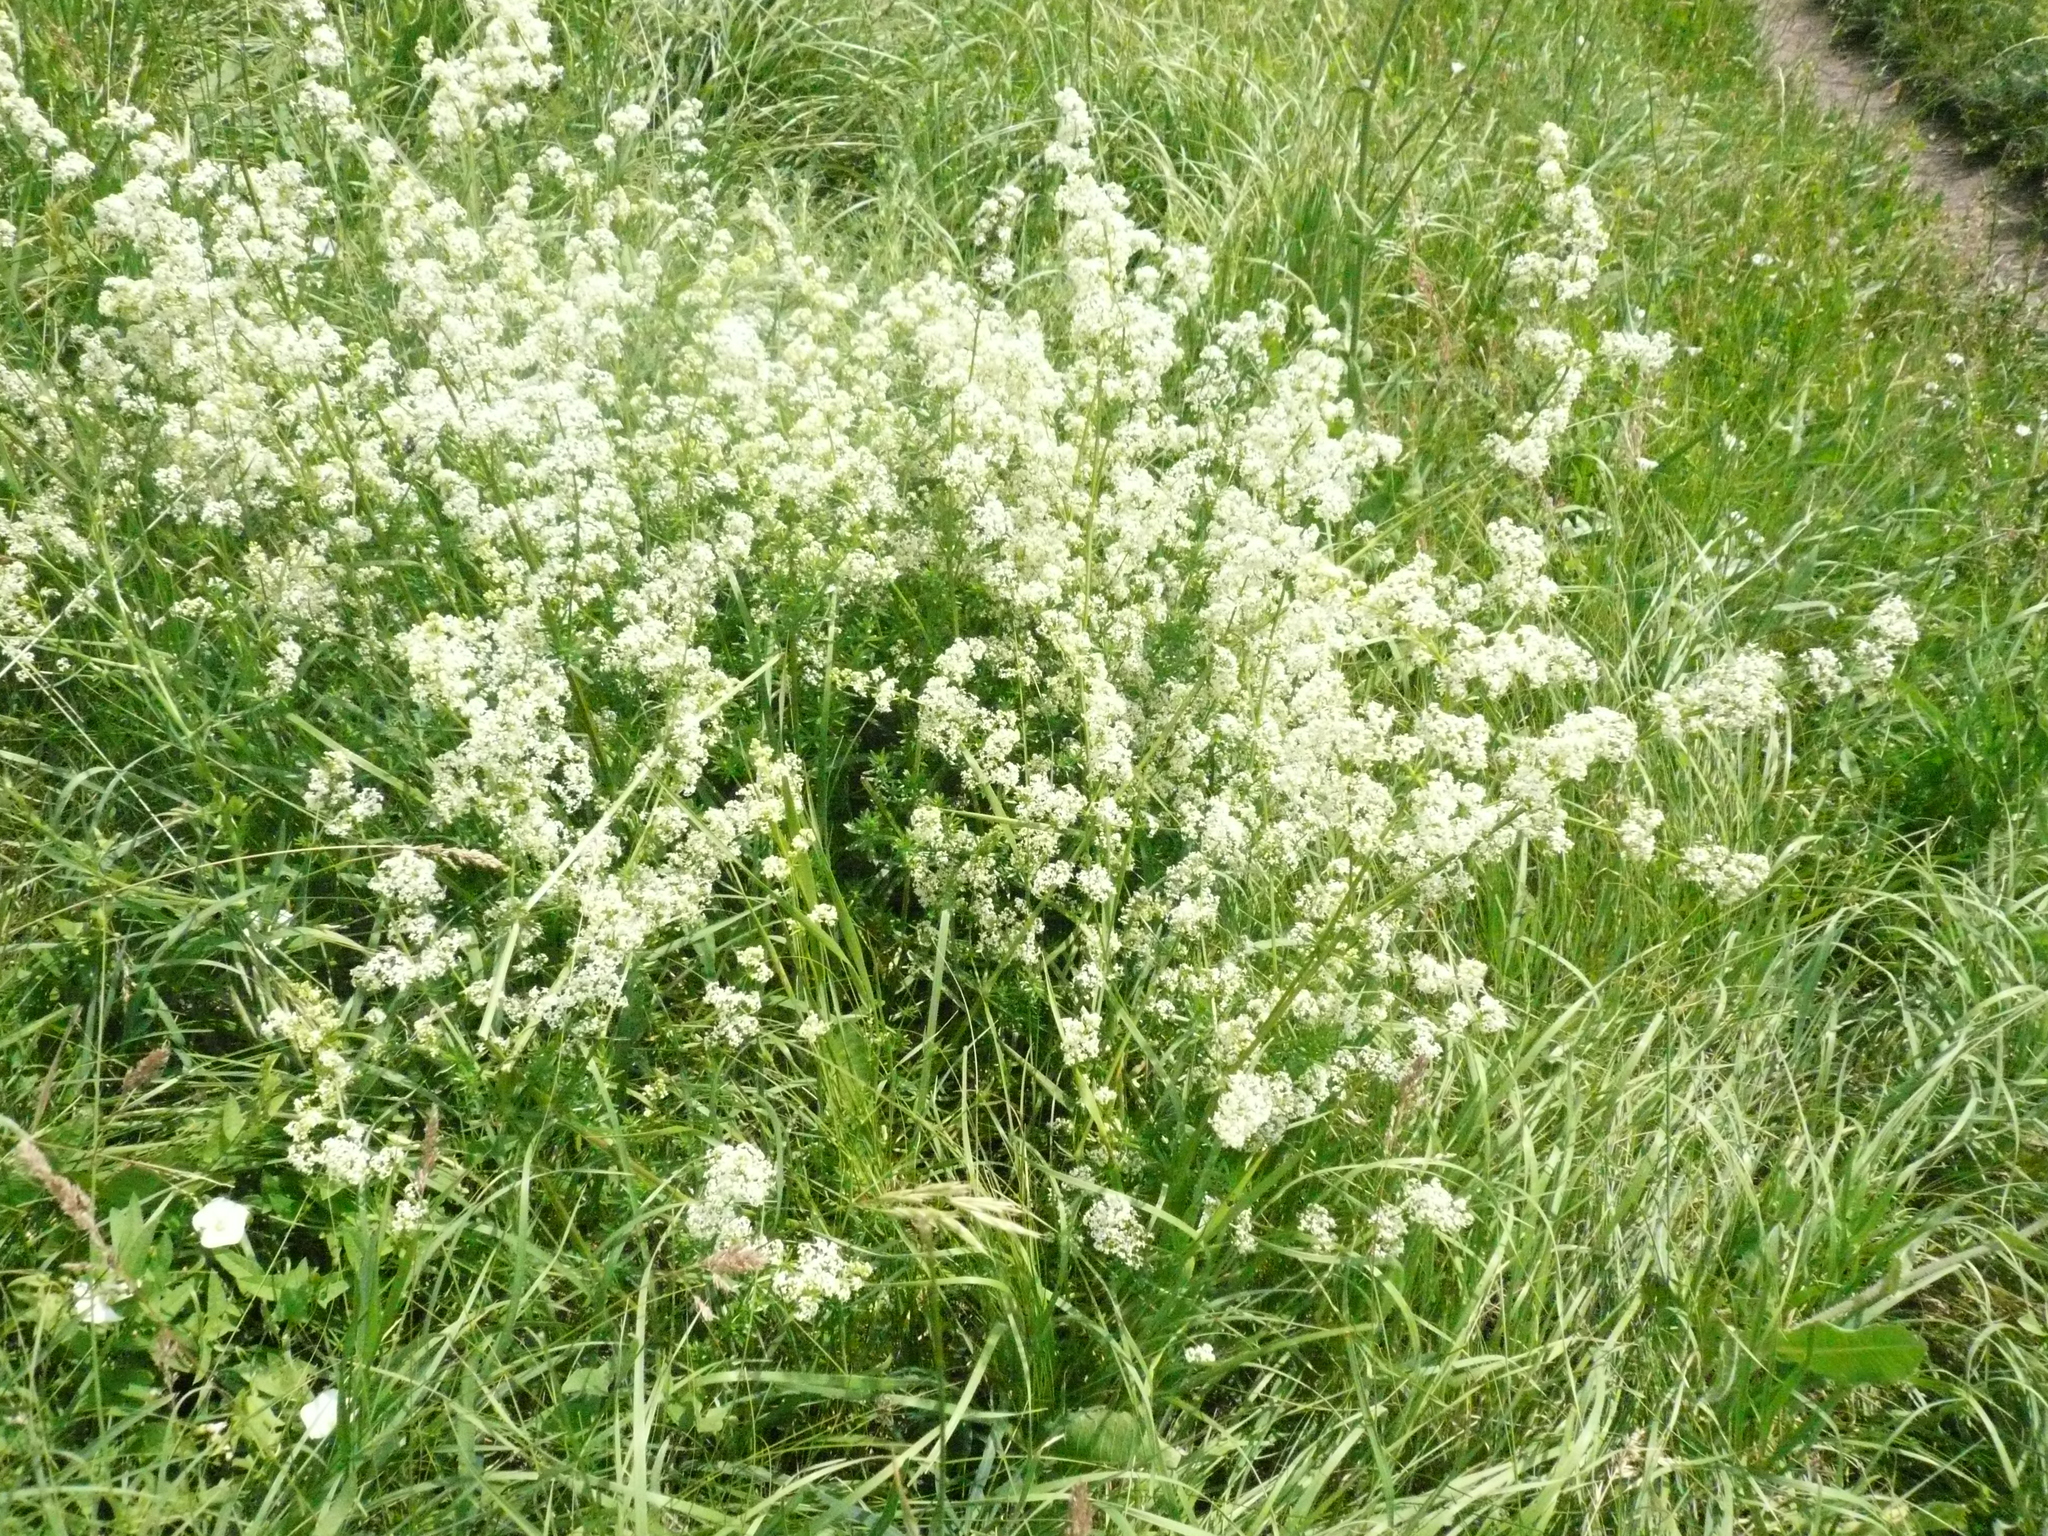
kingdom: Plantae
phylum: Tracheophyta
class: Magnoliopsida
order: Gentianales
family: Rubiaceae
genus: Galium
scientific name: Galium mollugo
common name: Hedge bedstraw
